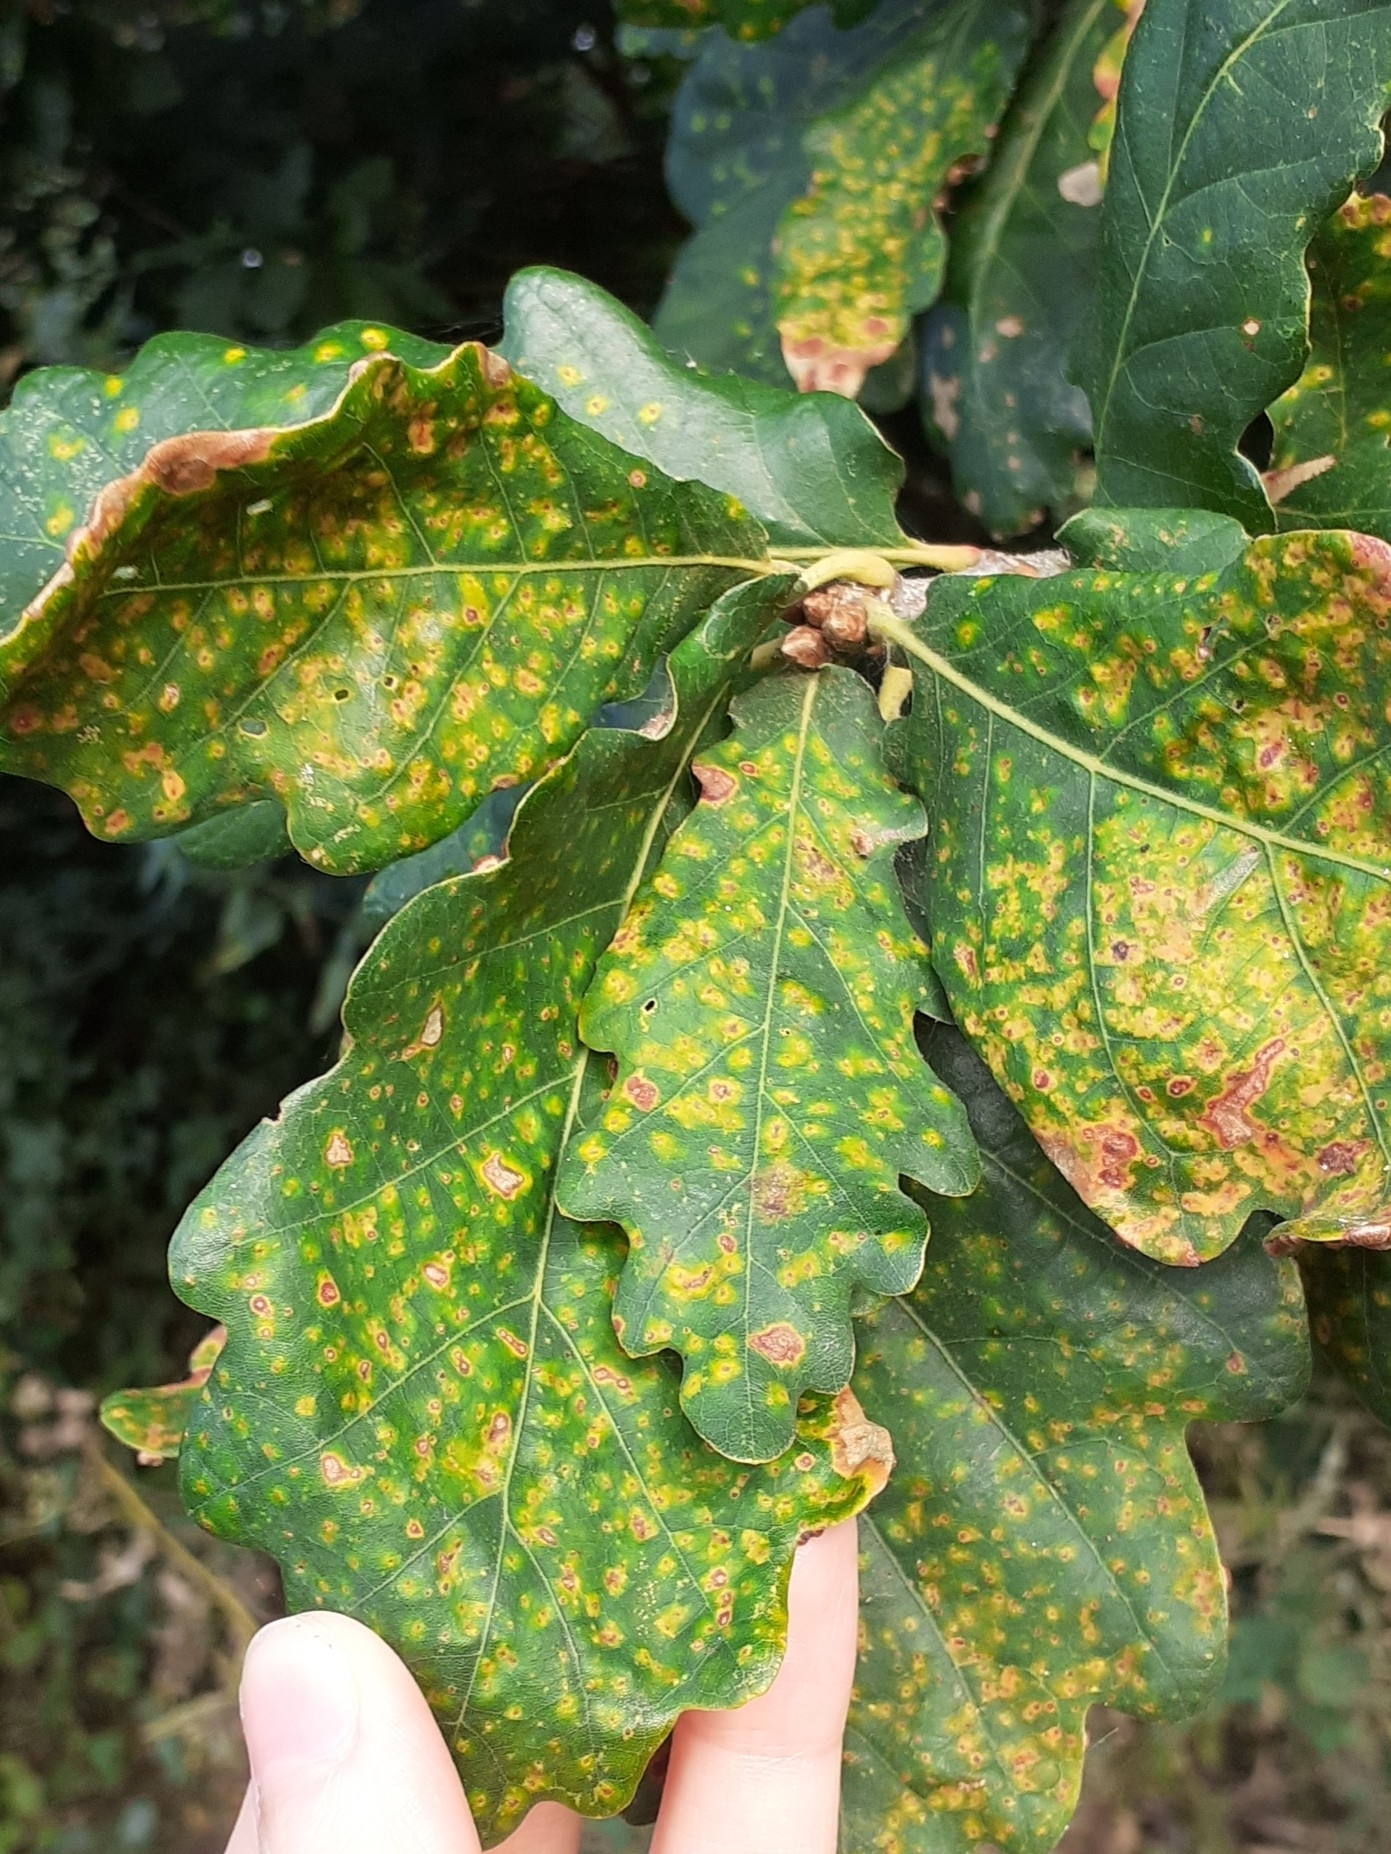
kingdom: Animalia
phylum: Arthropoda
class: Insecta
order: Hymenoptera
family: Cynipidae
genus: Neuroterus
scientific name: Neuroterus numismalis
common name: Silk-button spangle gall
